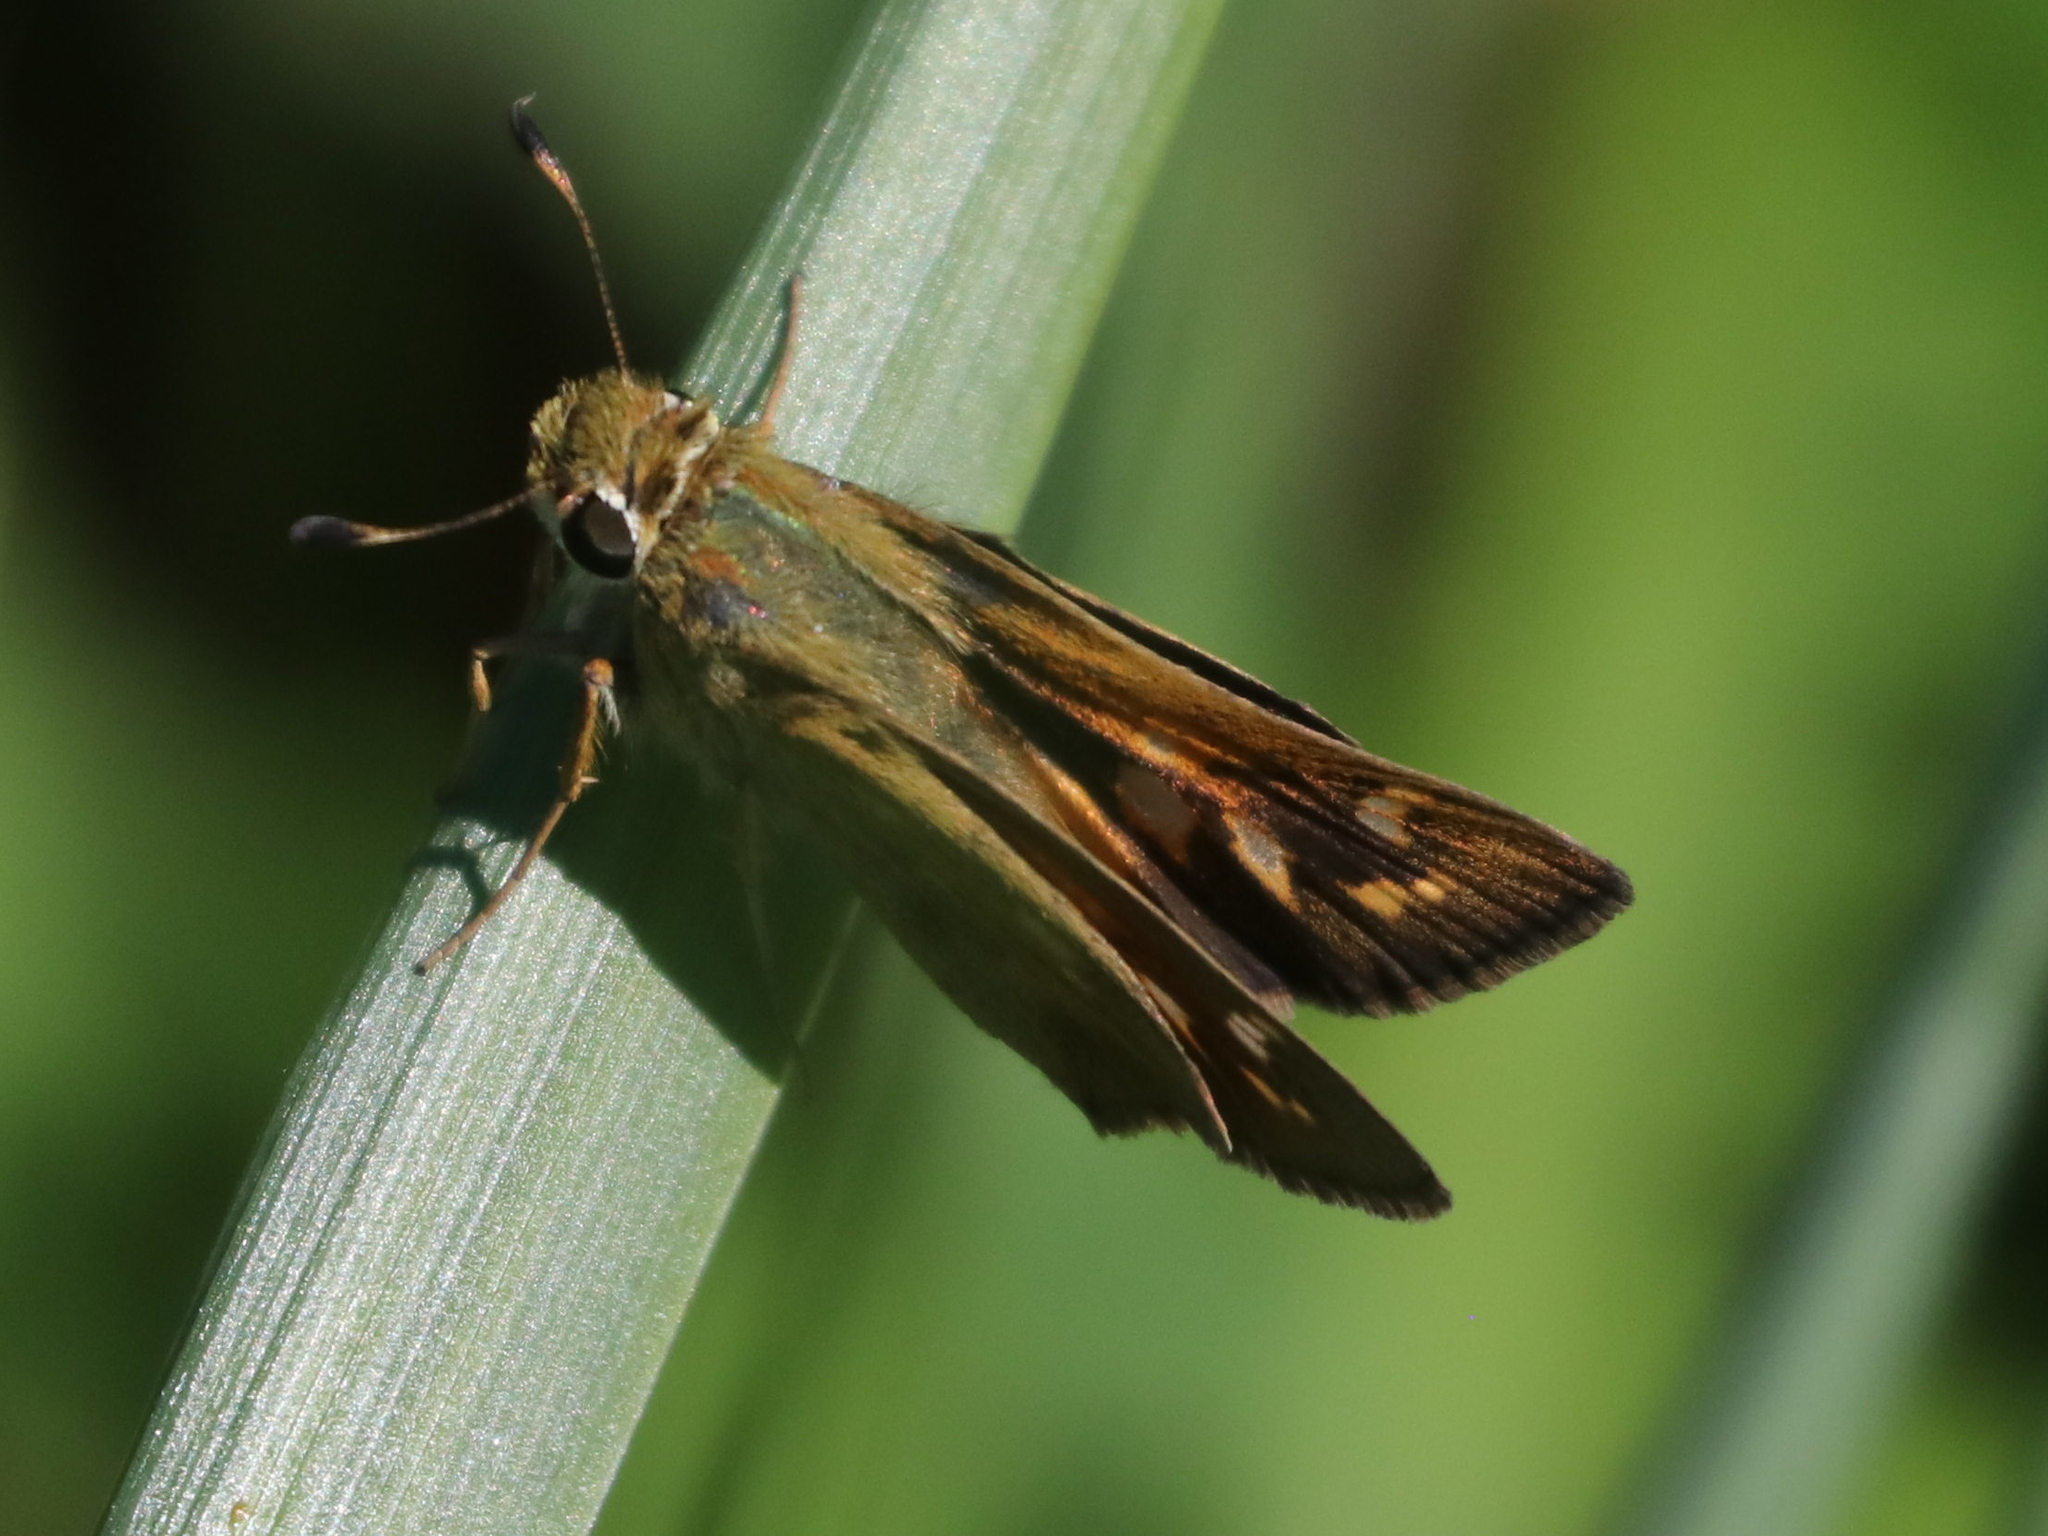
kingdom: Animalia
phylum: Arthropoda
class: Insecta
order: Lepidoptera
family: Hesperiidae
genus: Atalopedes
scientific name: Atalopedes
